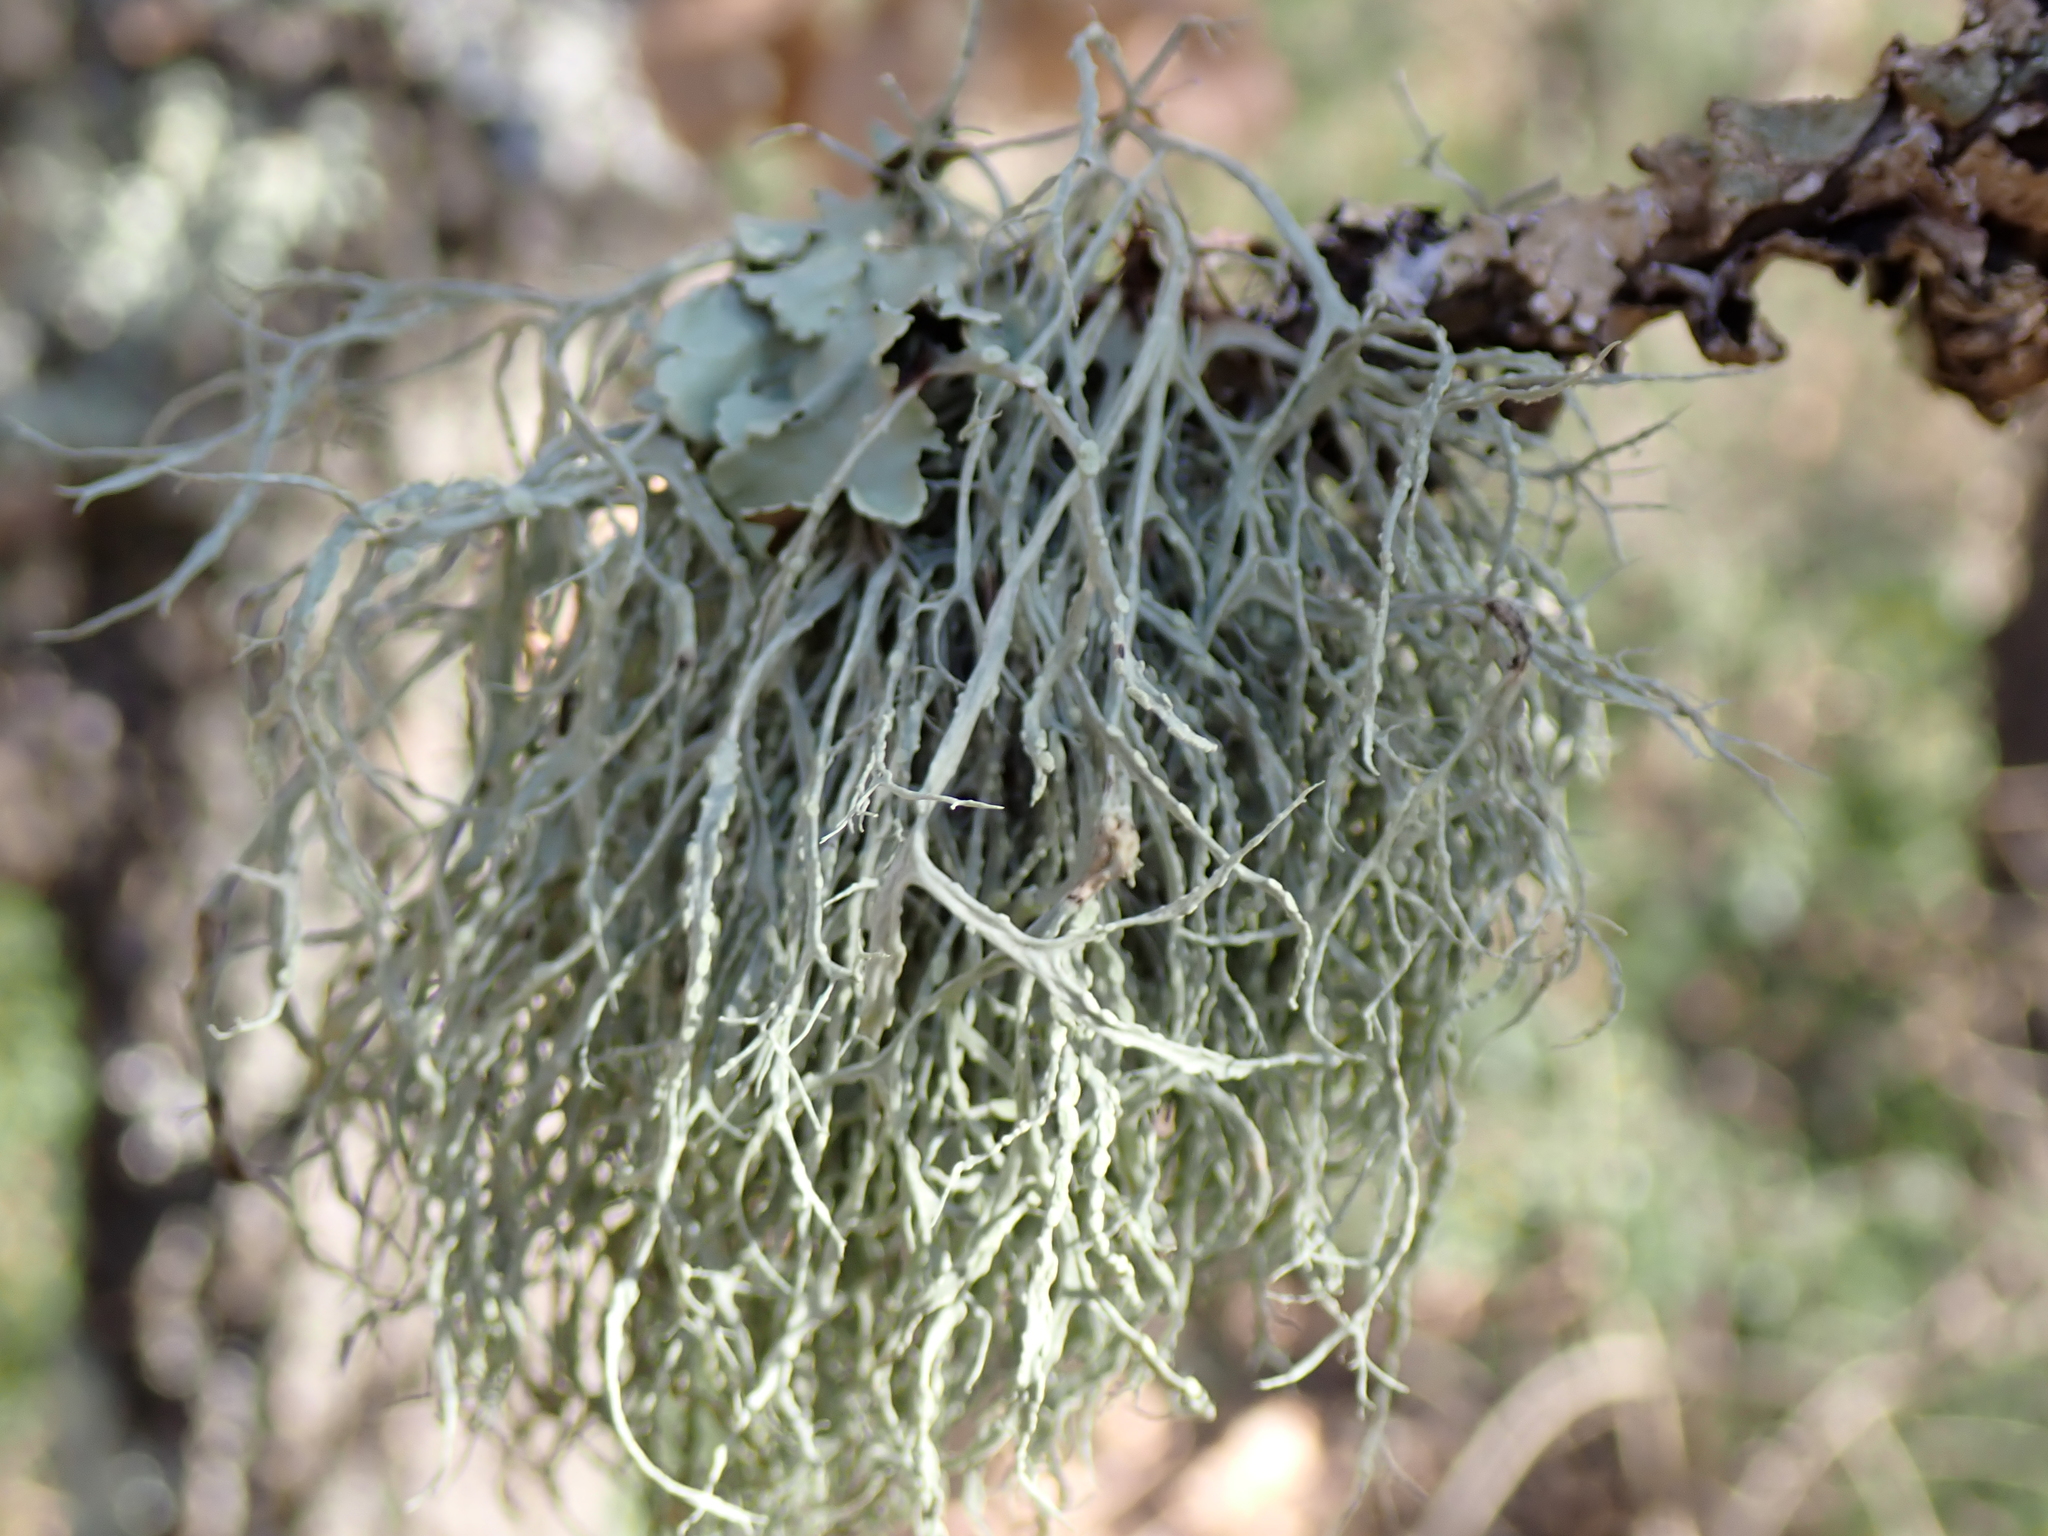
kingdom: Fungi
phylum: Ascomycota
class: Lecanoromycetes
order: Lecanorales
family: Ramalinaceae
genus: Ramalina
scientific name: Ramalina farinacea
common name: Farinose cartilage lichen
